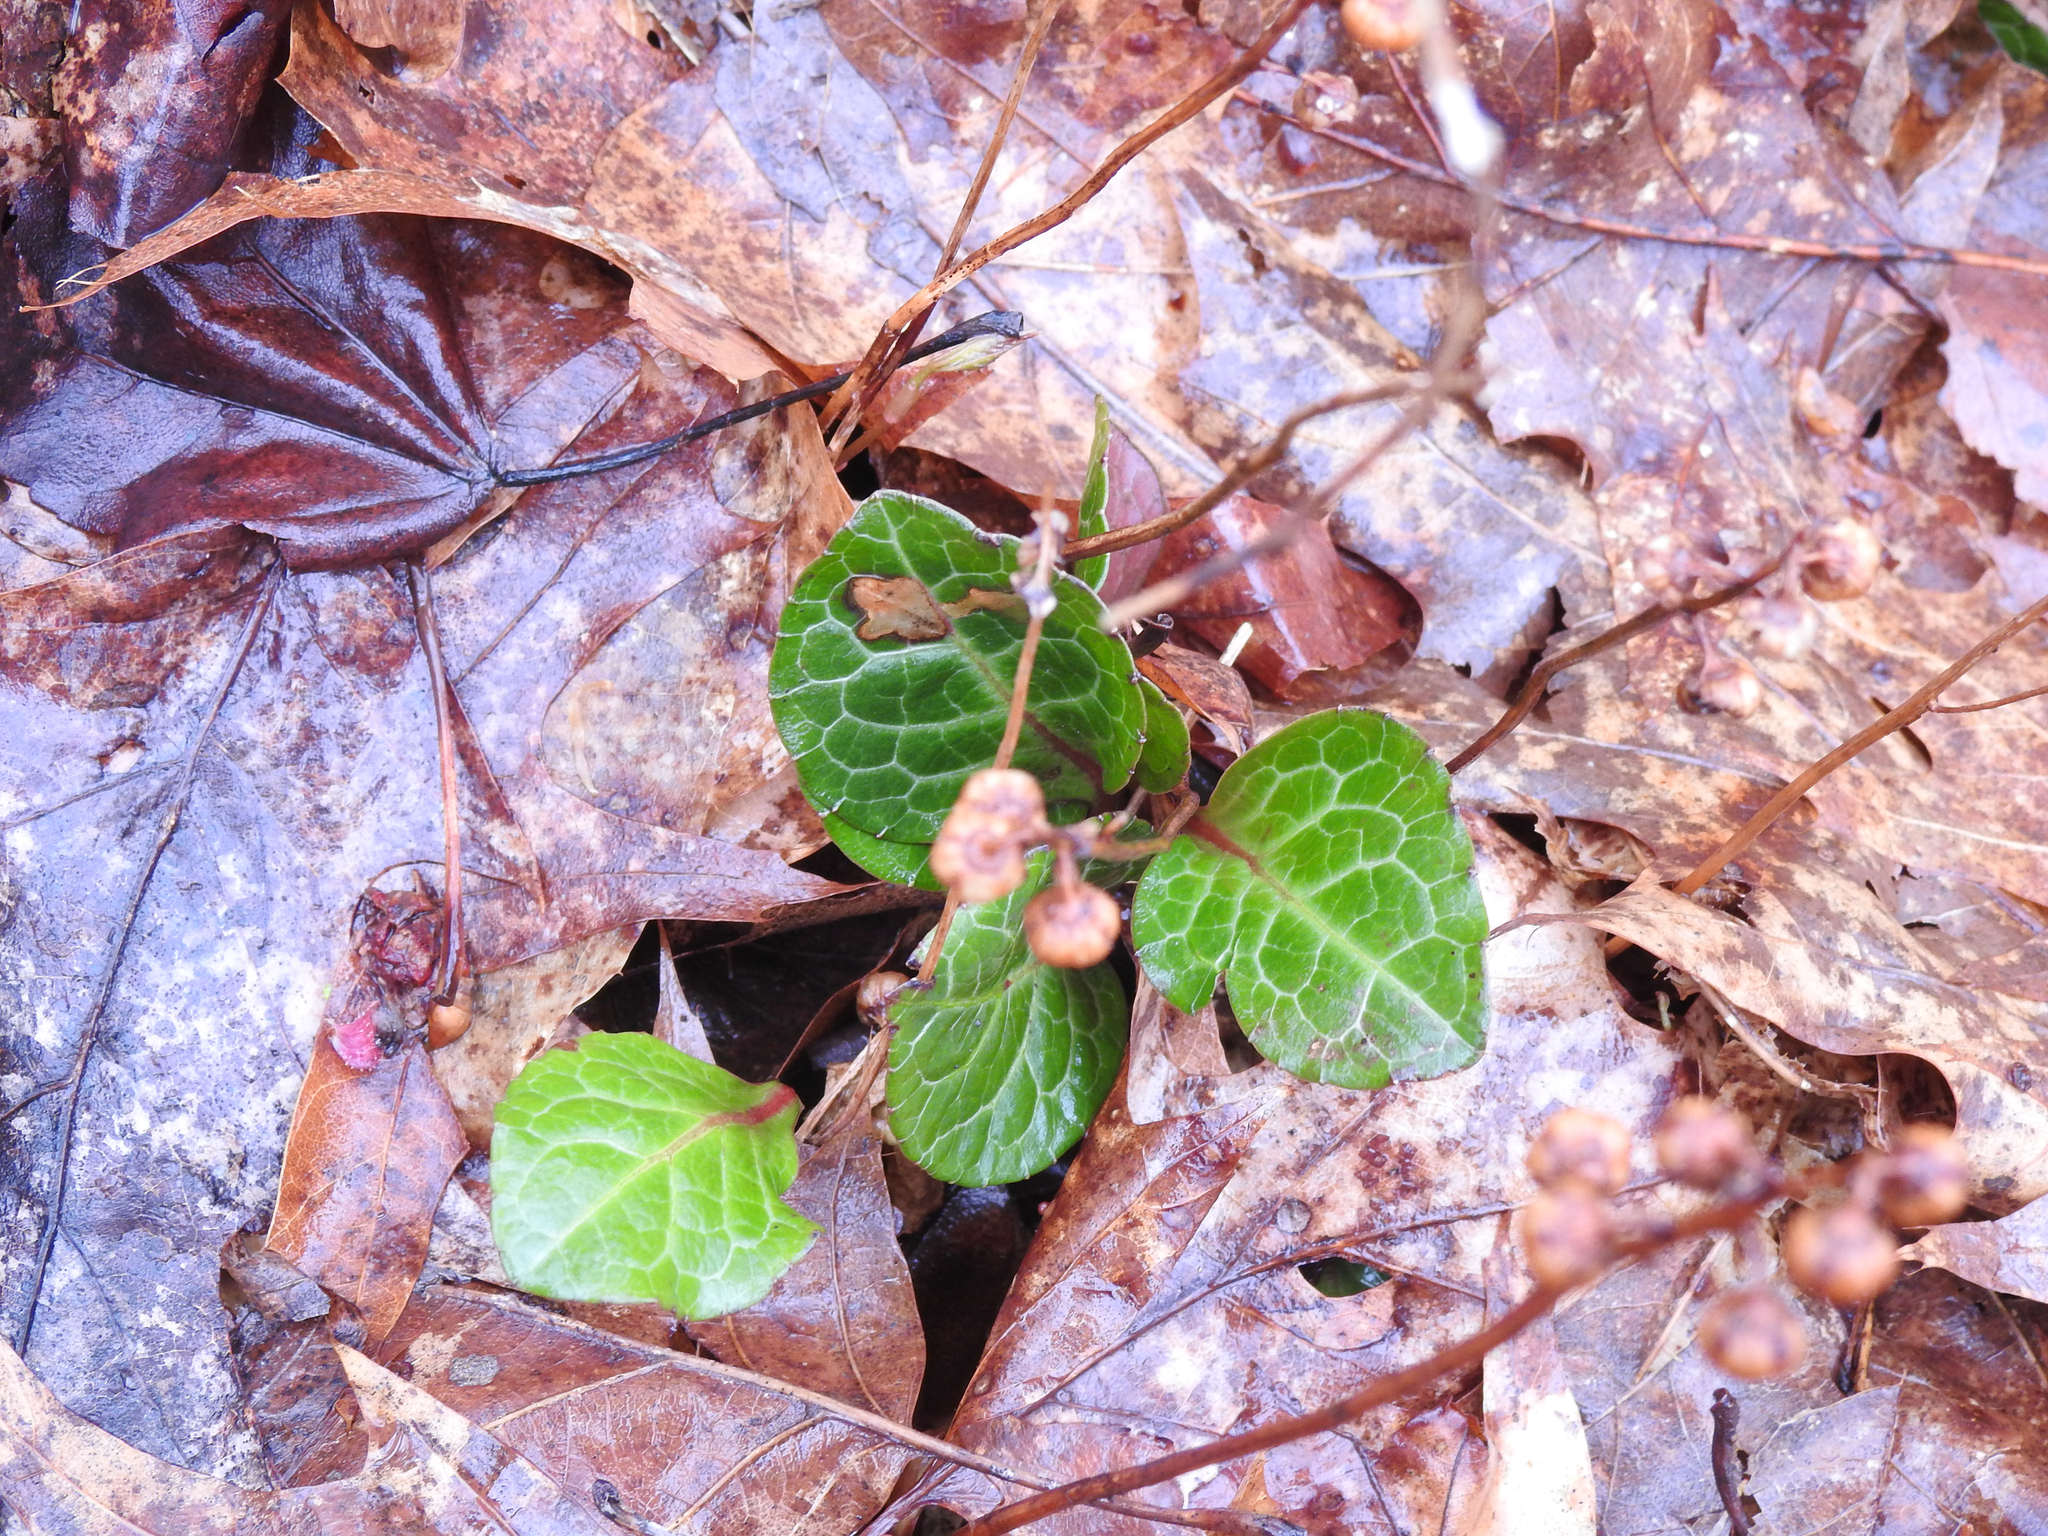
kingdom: Plantae
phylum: Tracheophyta
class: Magnoliopsida
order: Ericales
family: Ericaceae
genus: Pyrola
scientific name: Pyrola americana
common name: American wintergreen
